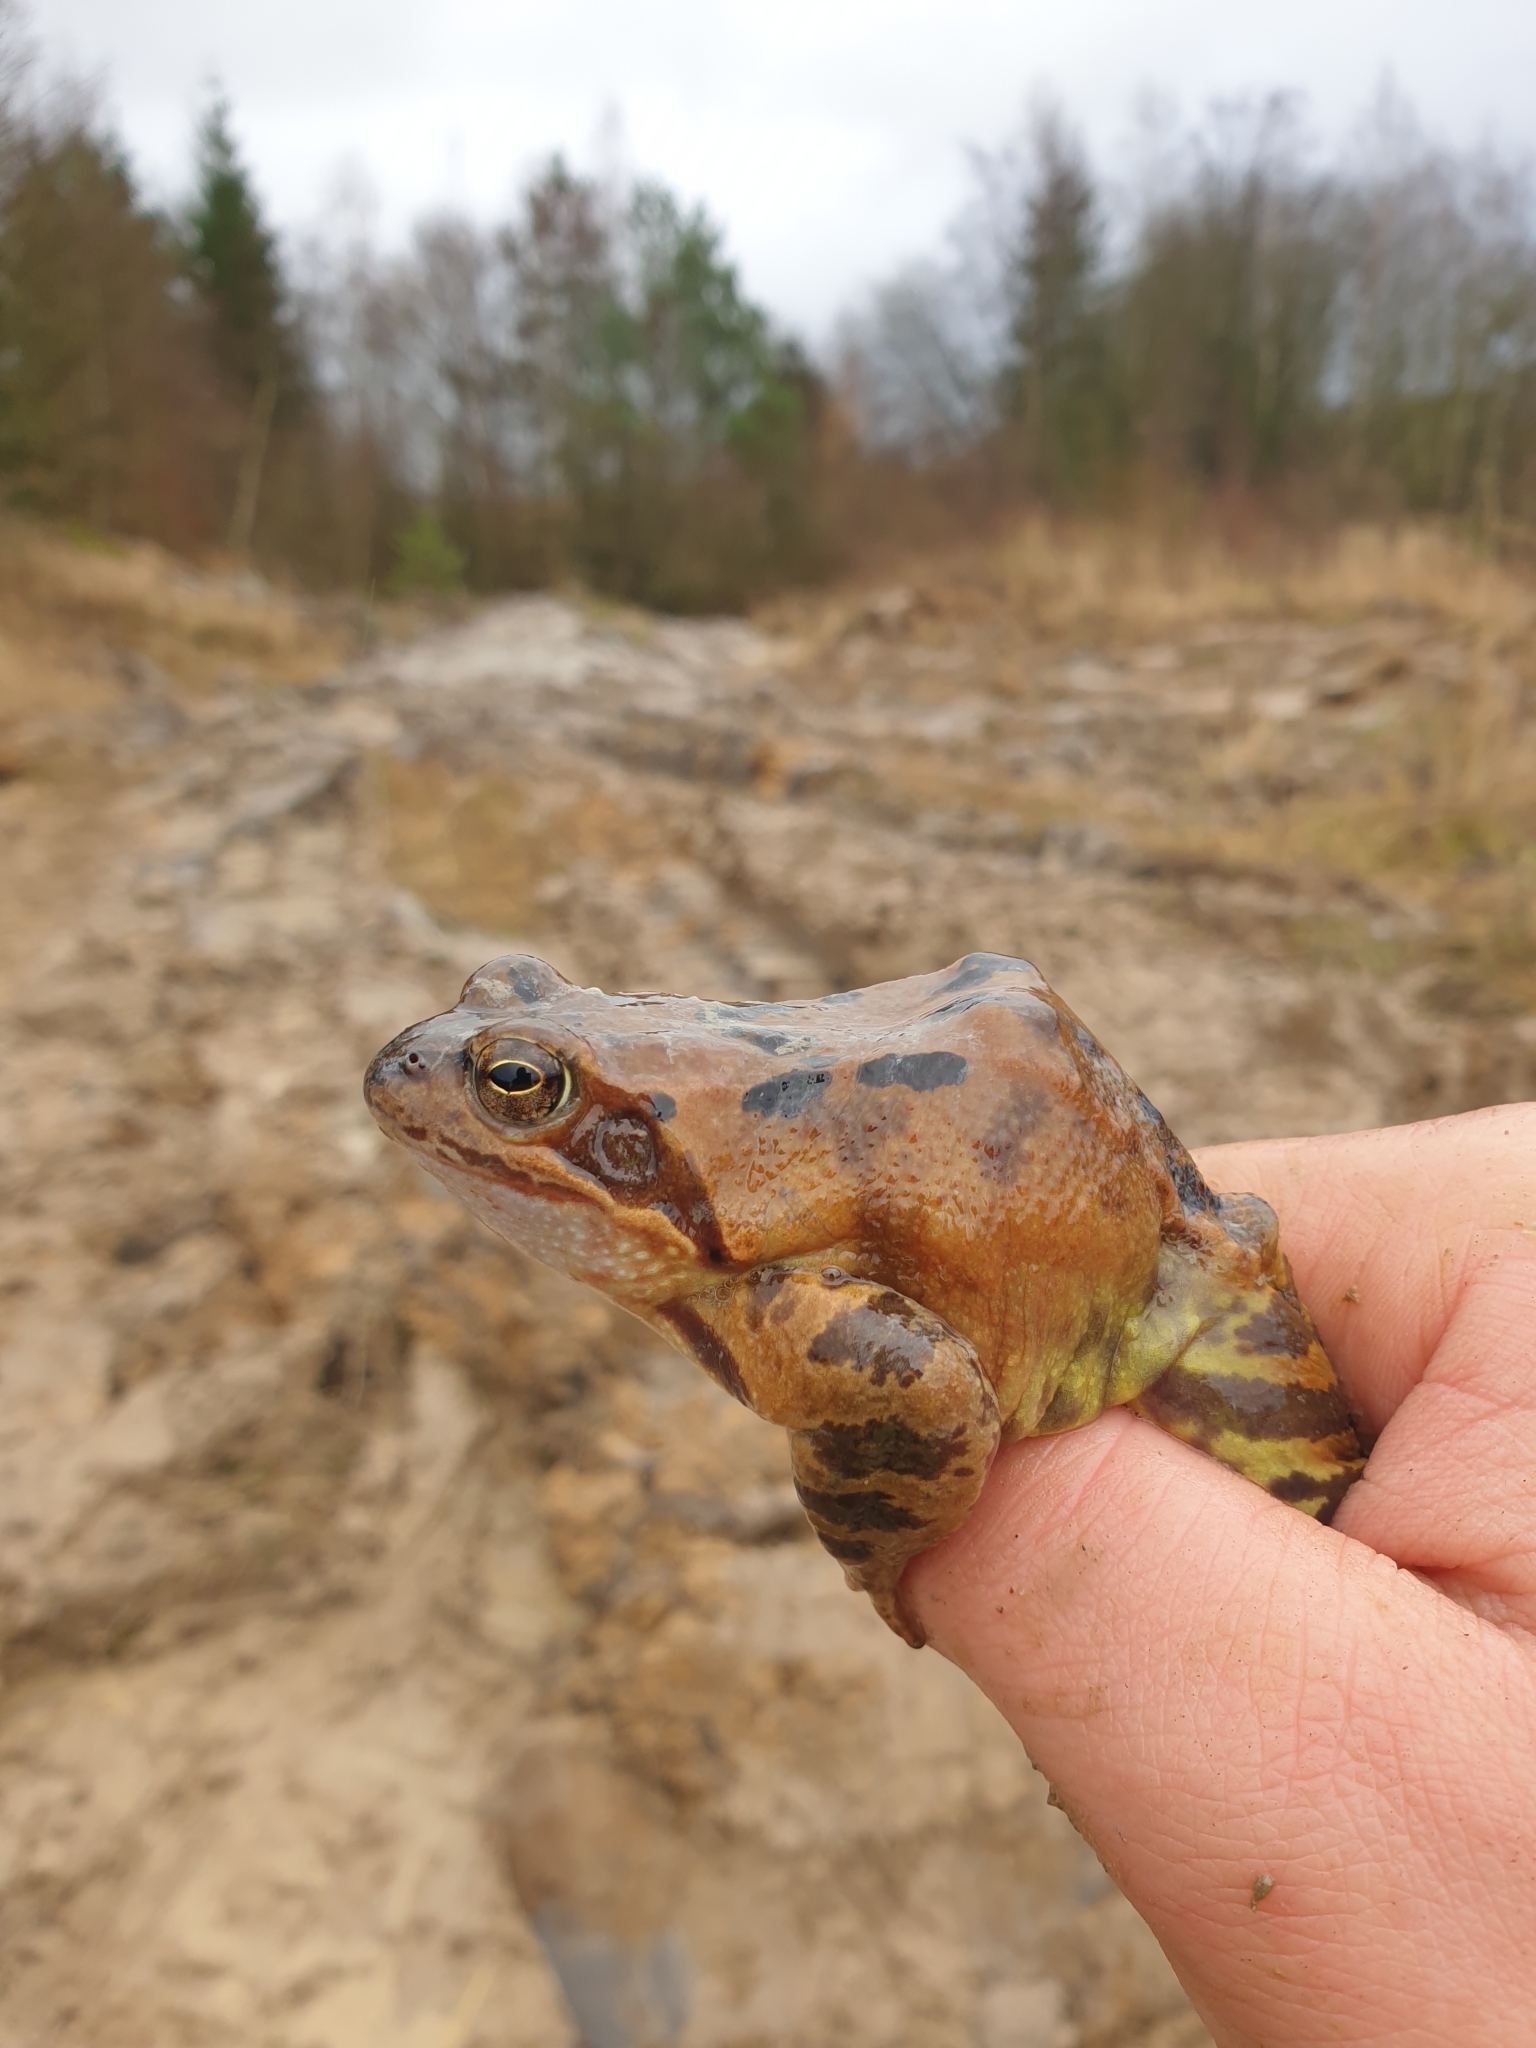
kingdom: Animalia
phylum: Chordata
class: Amphibia
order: Anura
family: Ranidae
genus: Rana
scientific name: Rana temporaria
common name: Common frog
